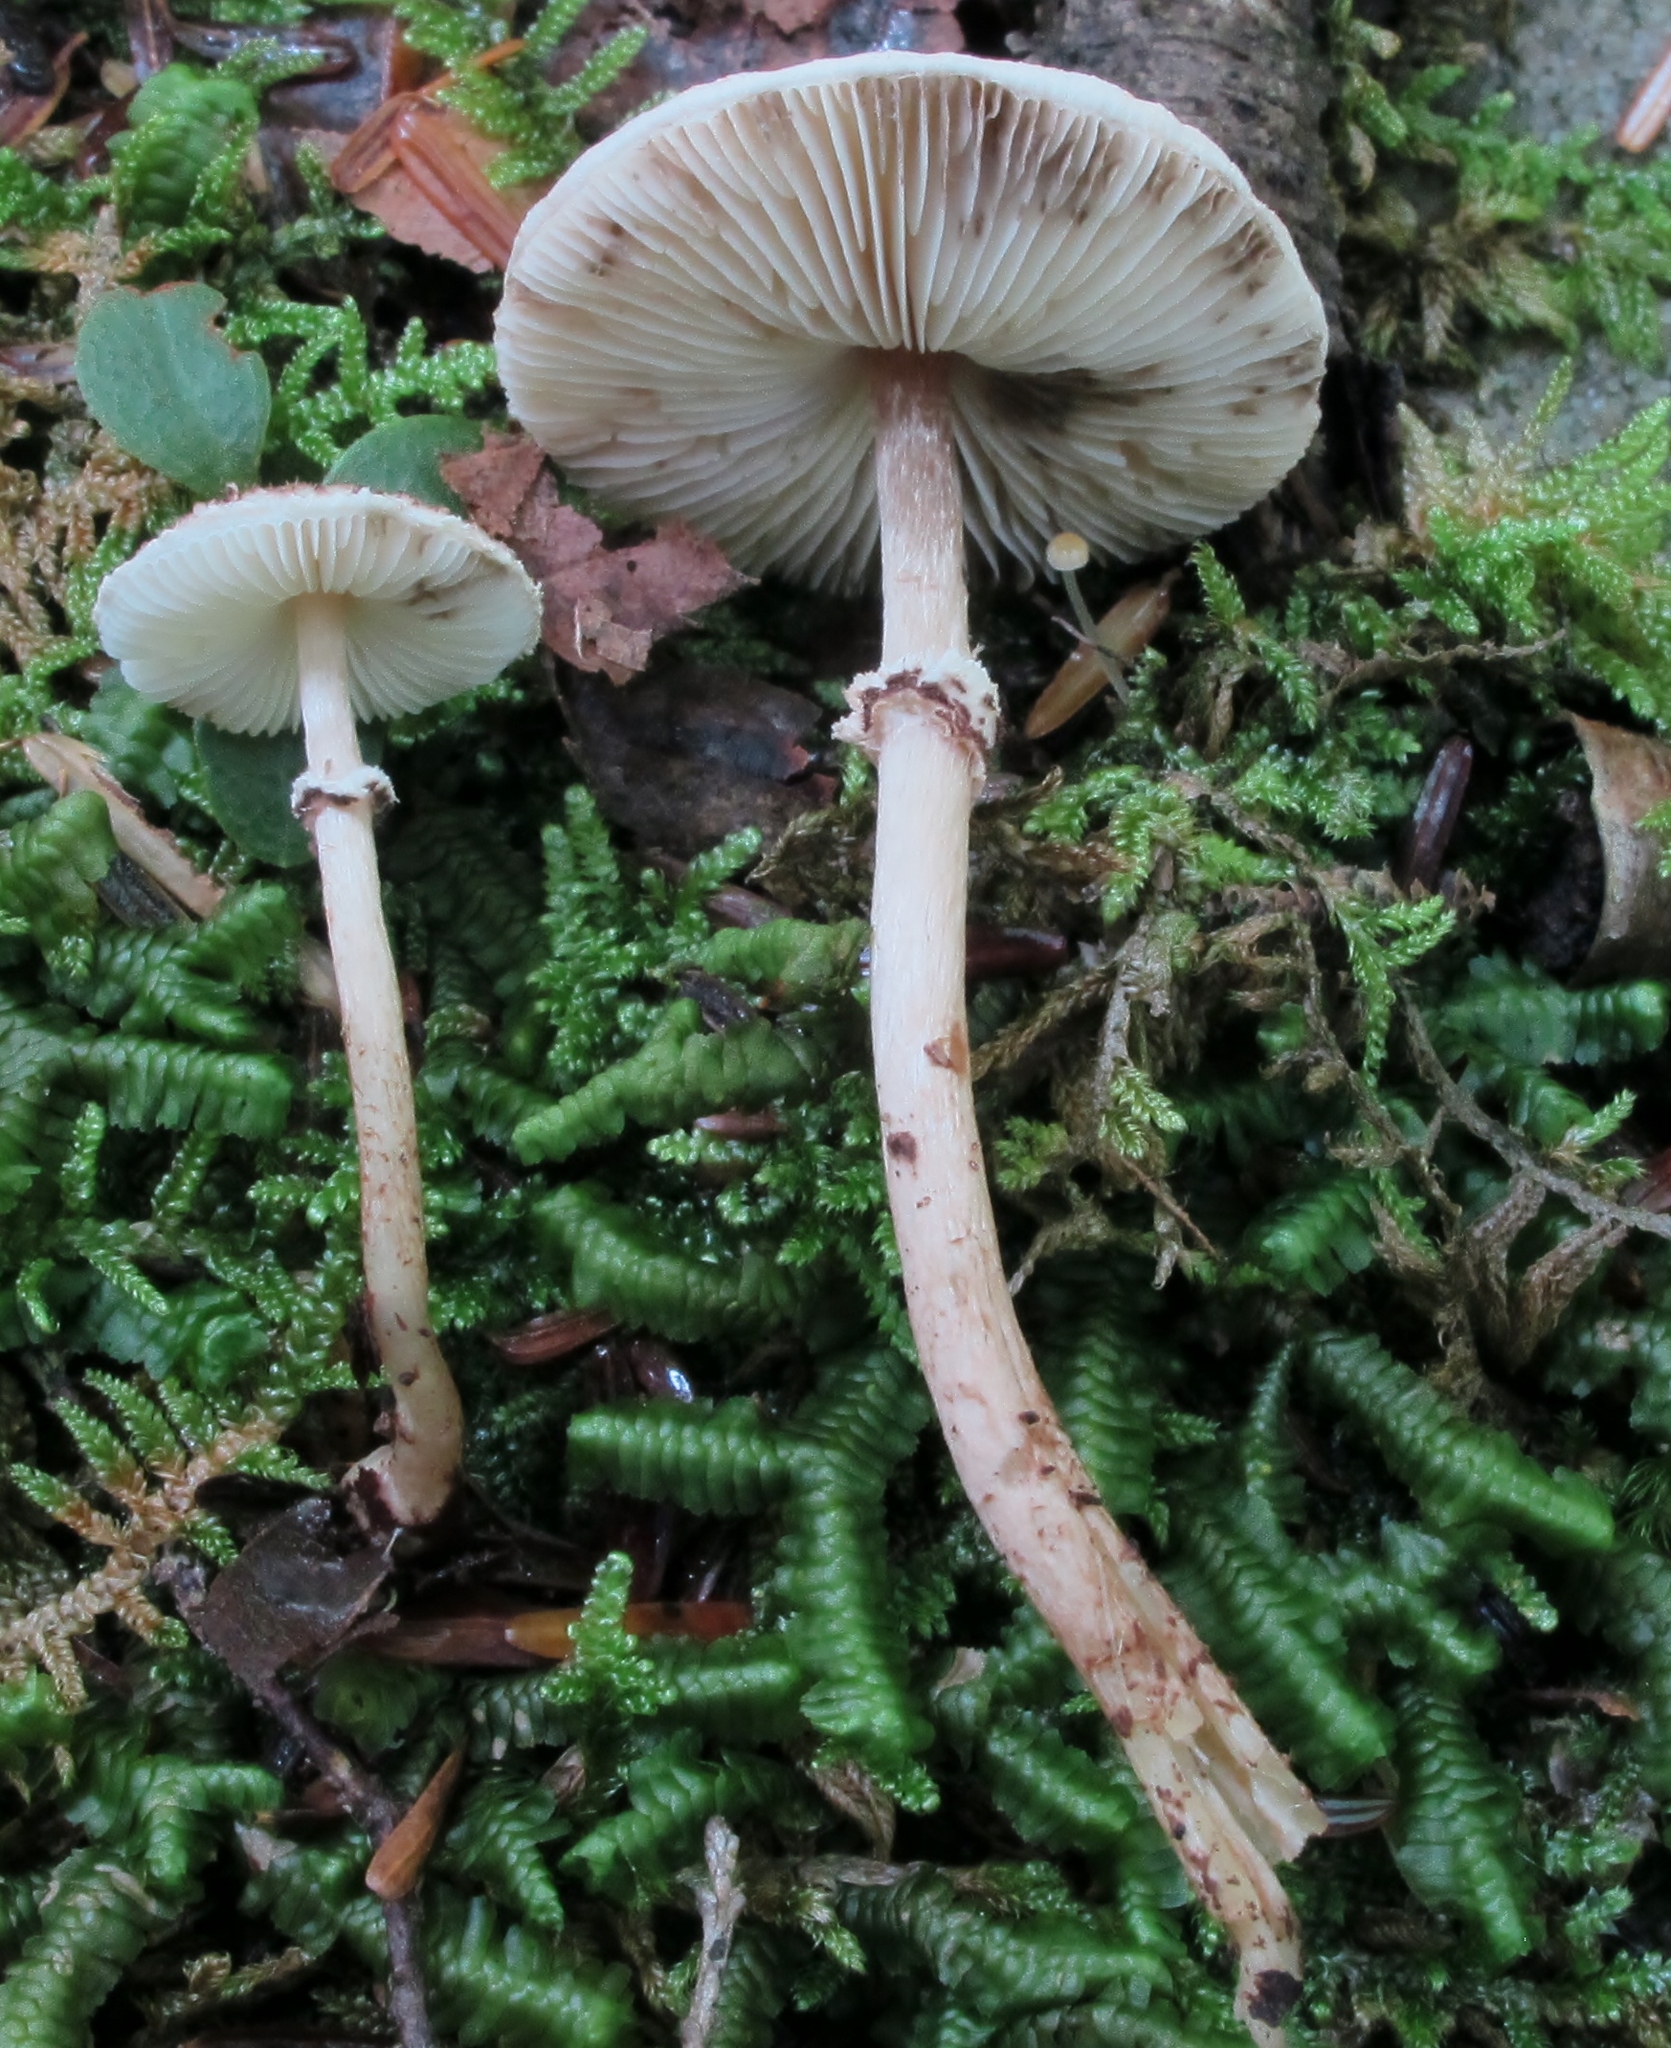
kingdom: Fungi
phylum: Basidiomycota
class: Agaricomycetes
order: Agaricales
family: Agaricaceae
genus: Lepiota
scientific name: Lepiota felina
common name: Cat dapperling
